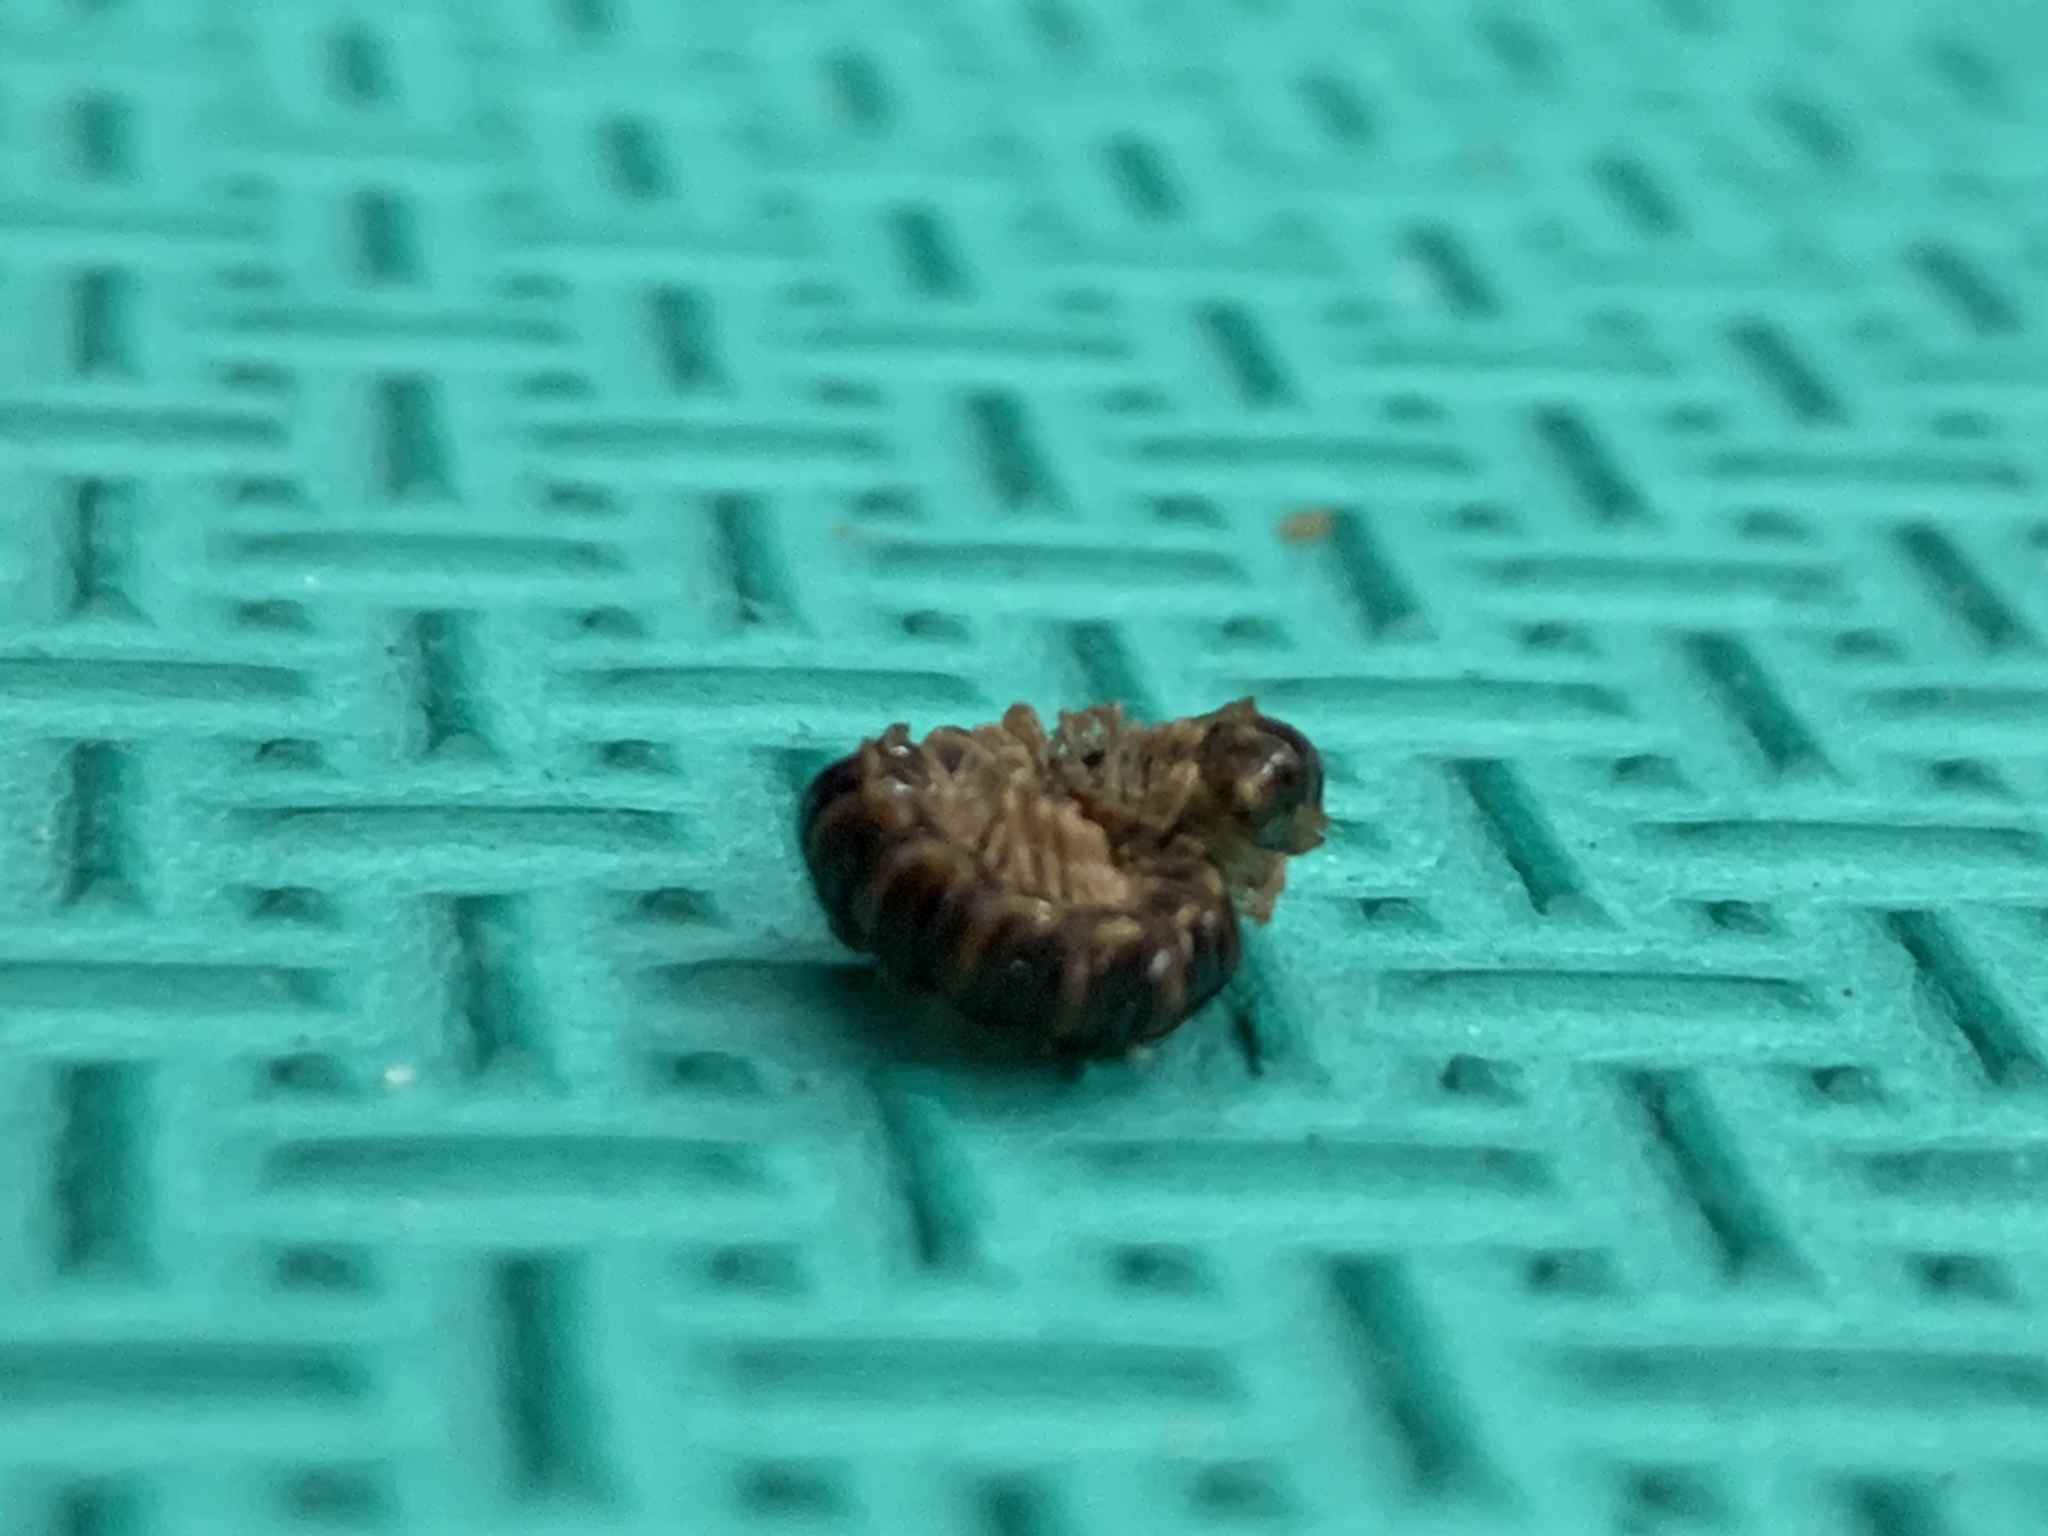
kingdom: Animalia
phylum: Arthropoda
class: Diplopoda
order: Polydesmida
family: Paradoxosomatidae
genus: Oxidus
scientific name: Oxidus gracilis
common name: Greenhouse millipede
